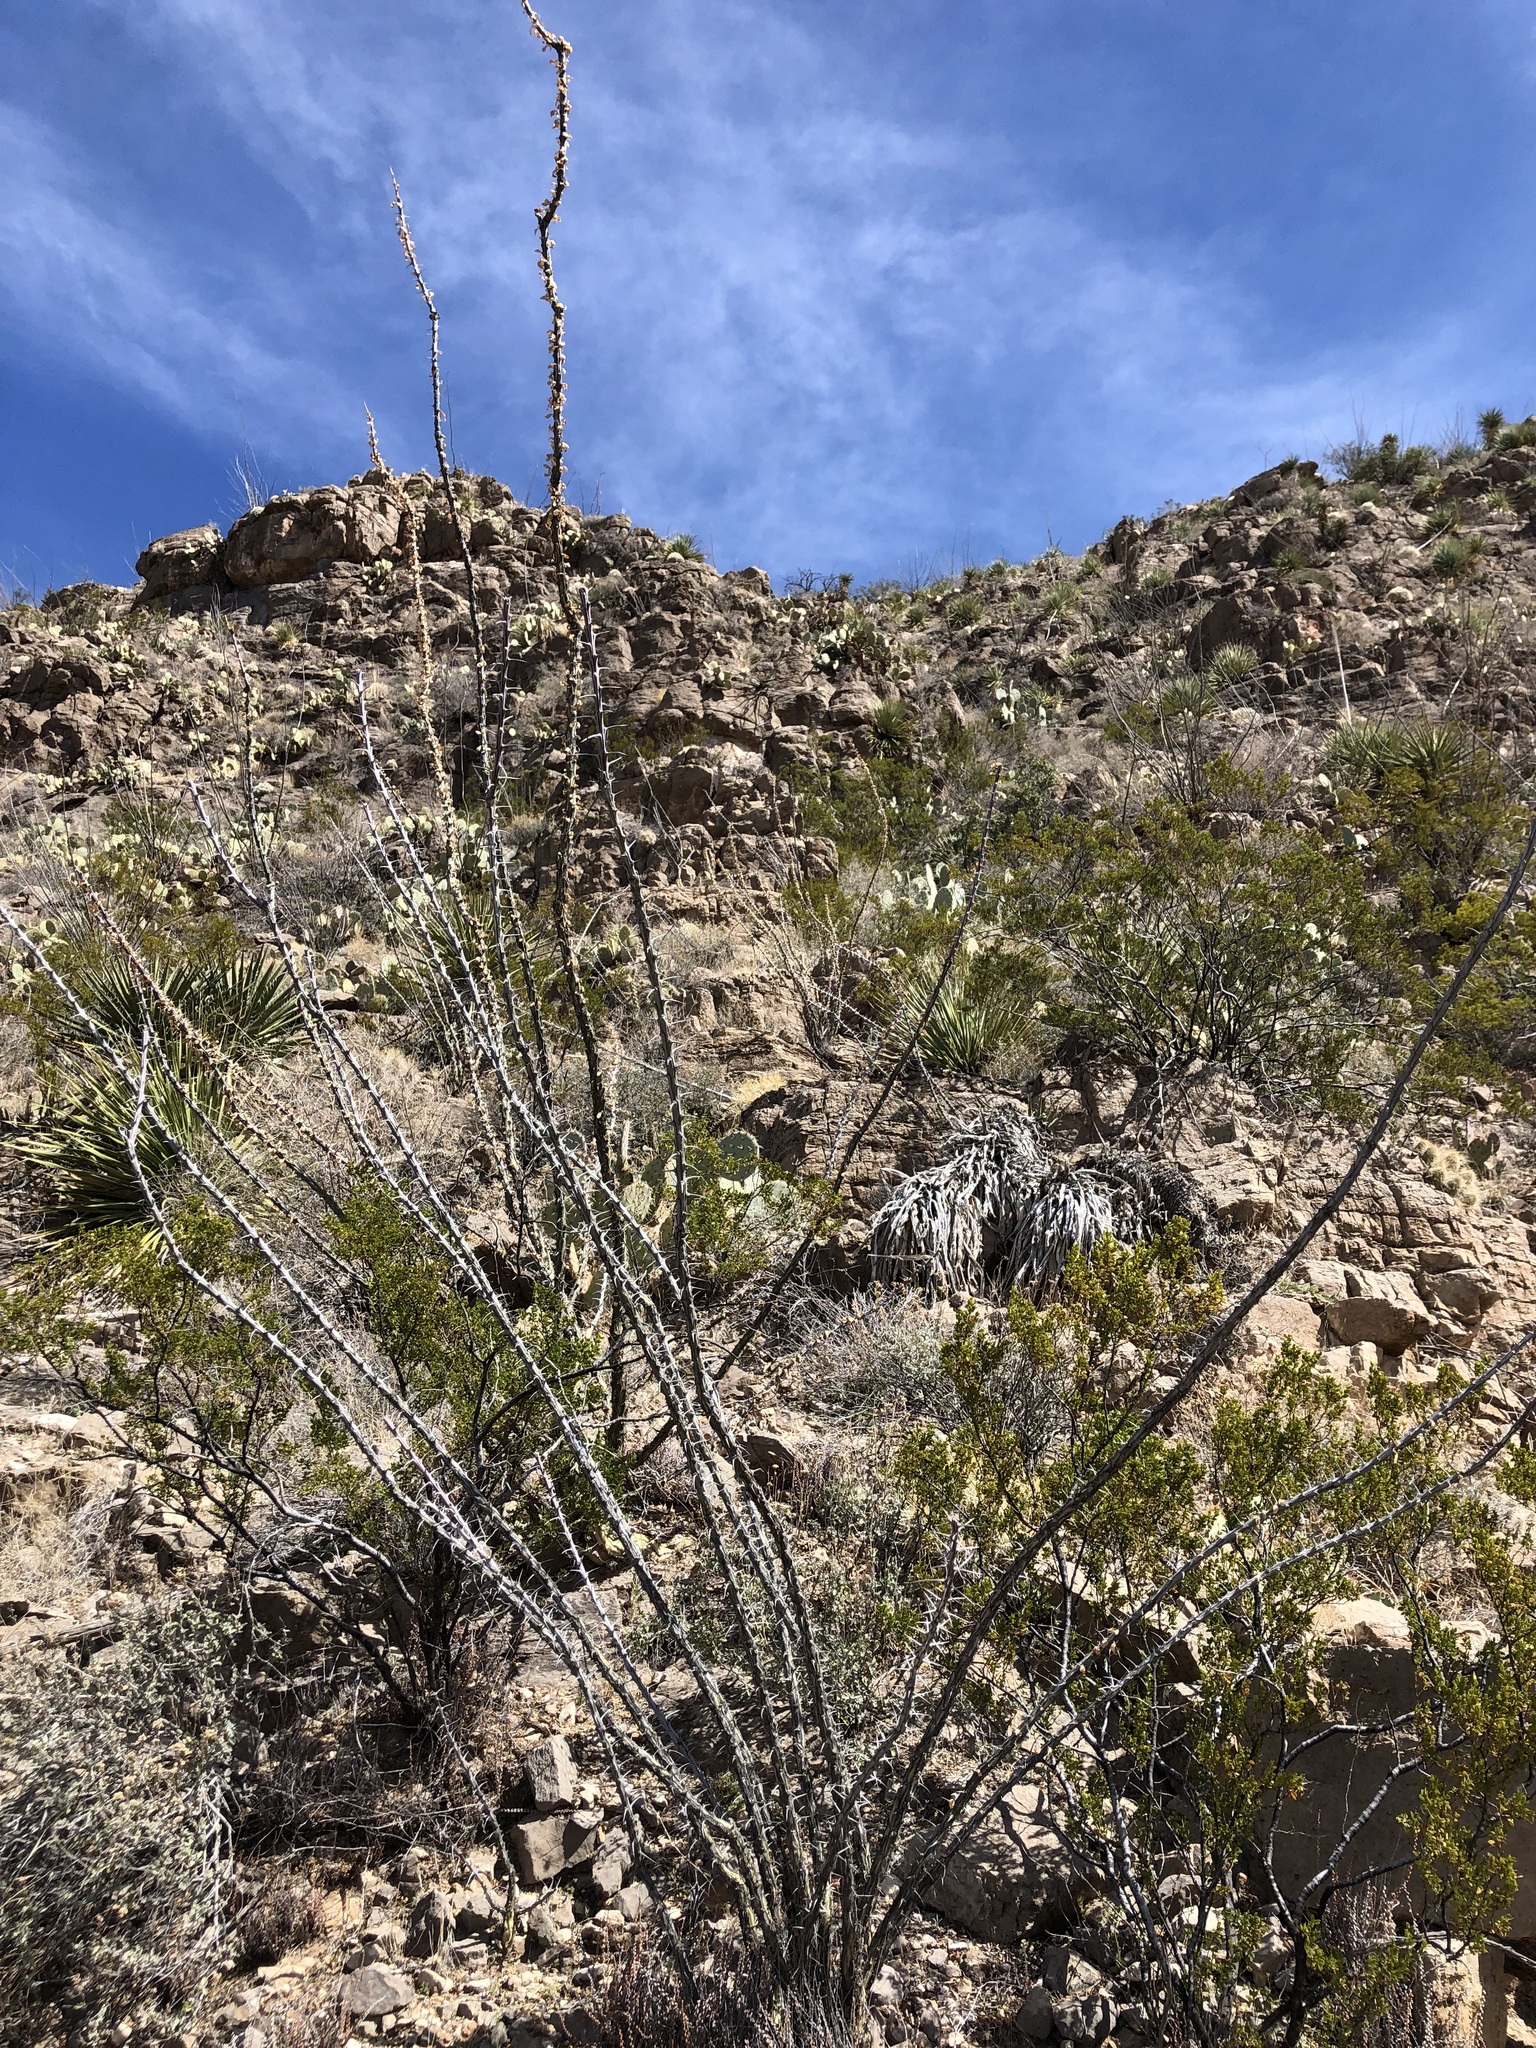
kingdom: Plantae
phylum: Tracheophyta
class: Magnoliopsida
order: Ericales
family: Fouquieriaceae
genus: Fouquieria
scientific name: Fouquieria splendens
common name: Vine-cactus
